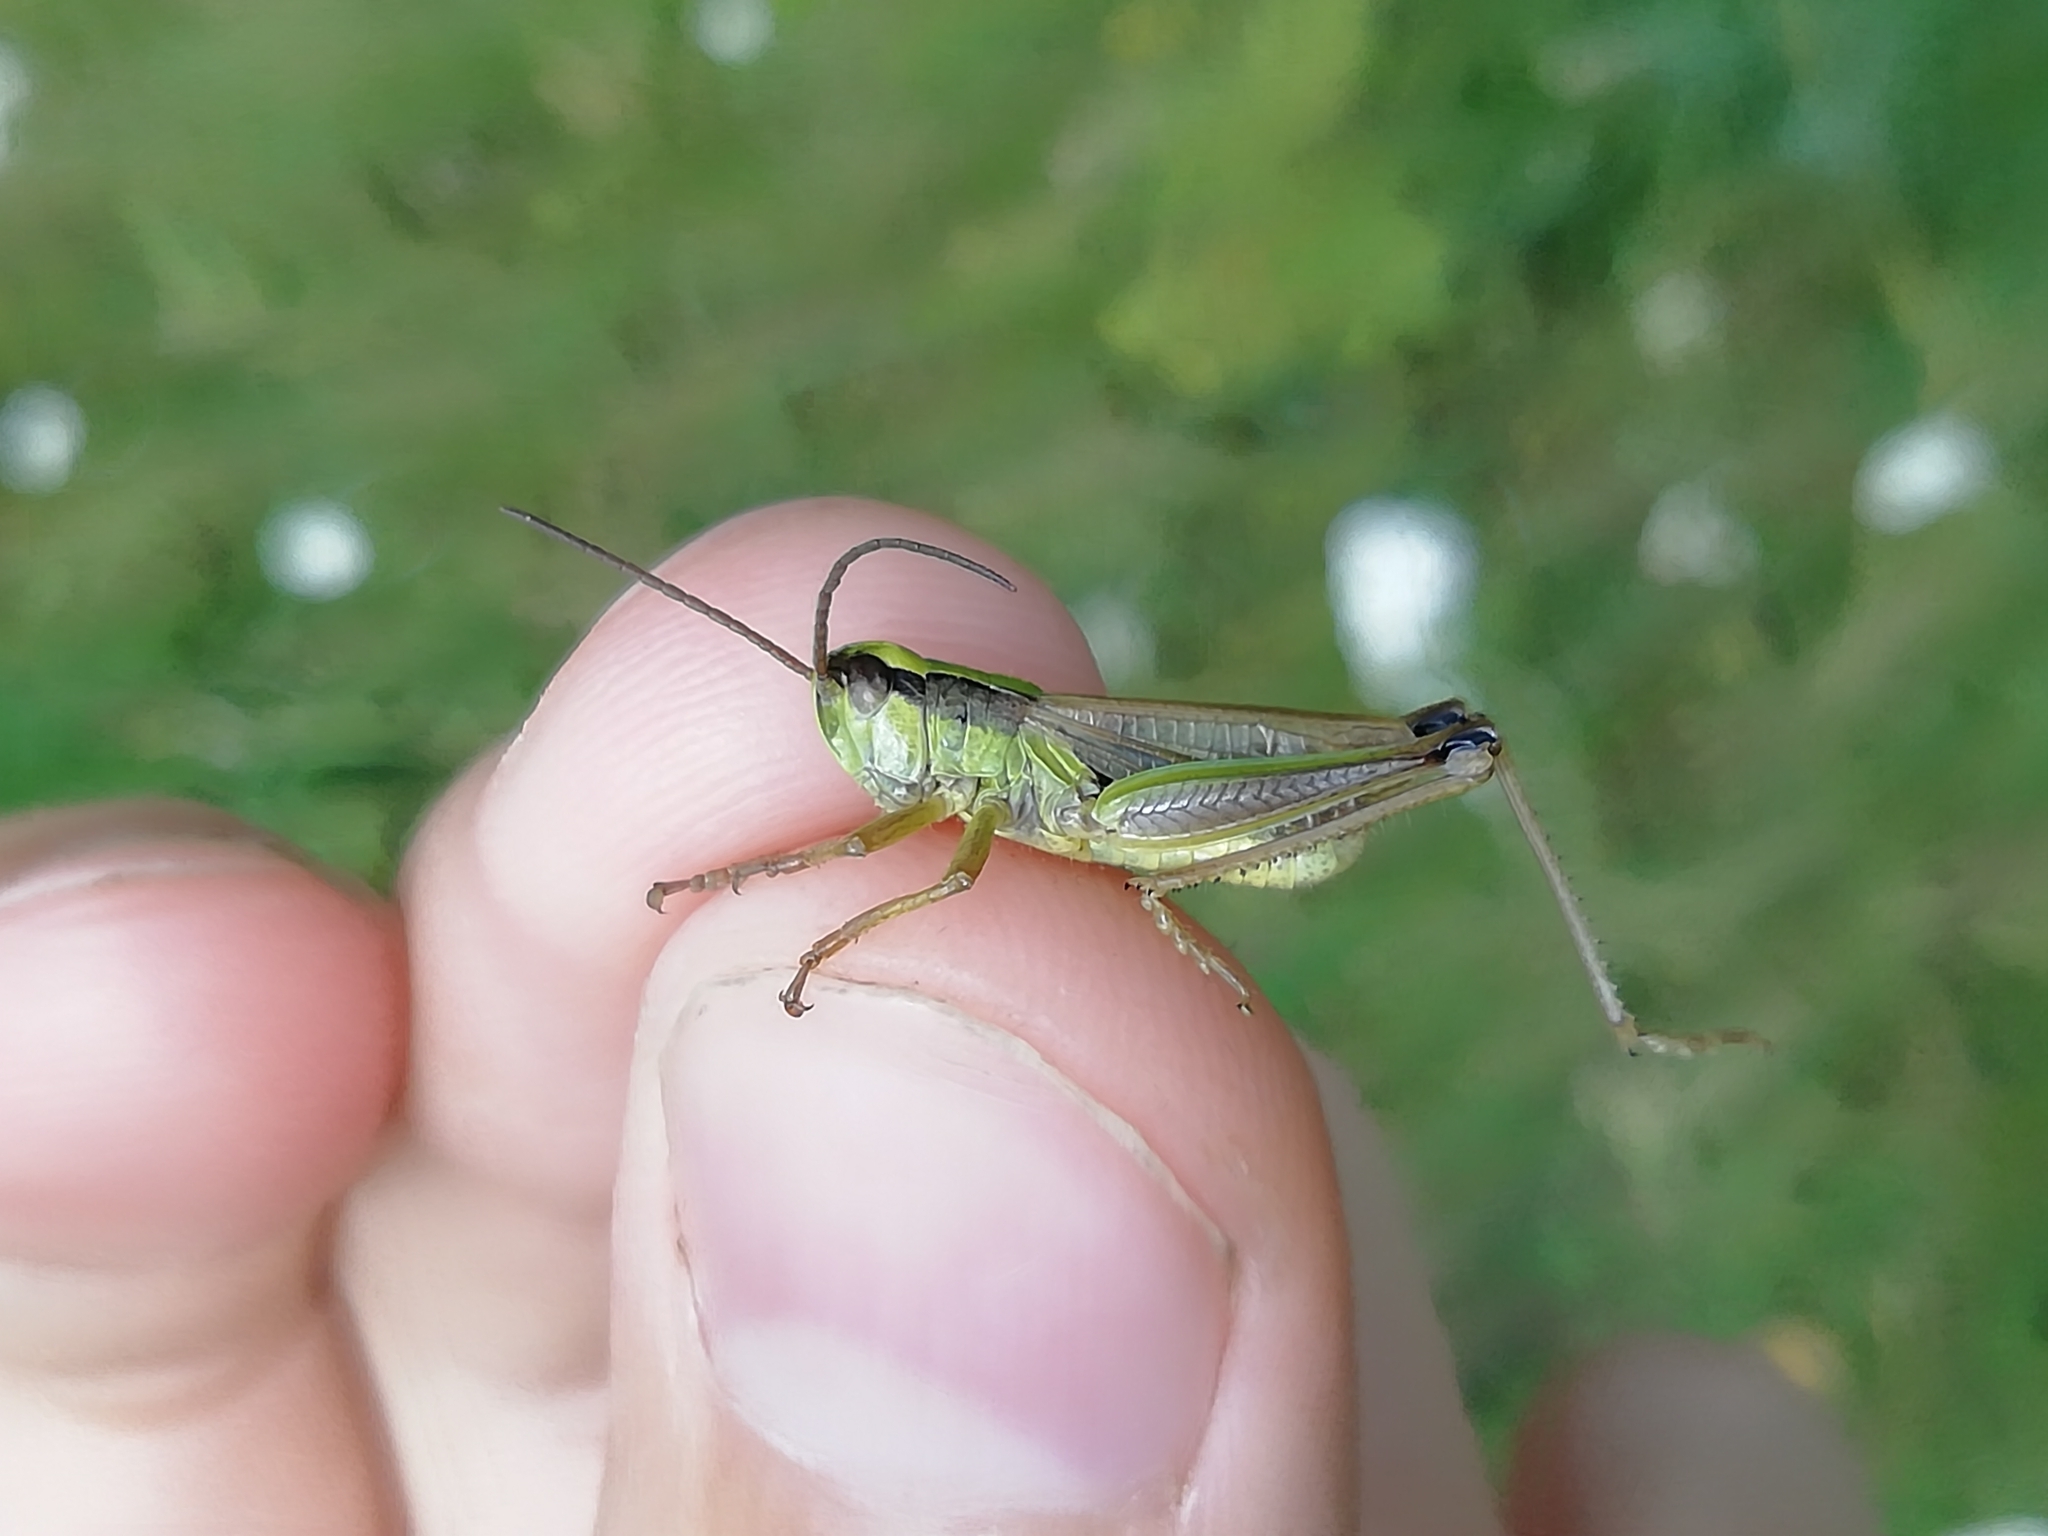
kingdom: Animalia
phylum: Arthropoda
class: Insecta
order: Orthoptera
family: Acrididae
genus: Chorthippus
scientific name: Chorthippus fallax
